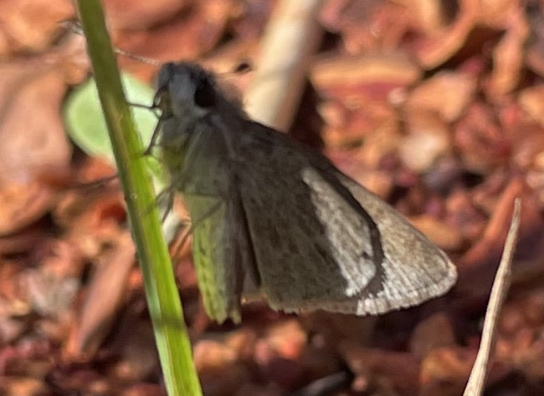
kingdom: Animalia
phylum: Arthropoda
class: Insecta
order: Lepidoptera
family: Hesperiidae
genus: Lerodea
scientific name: Lerodea eufala
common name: Eufala skipper
